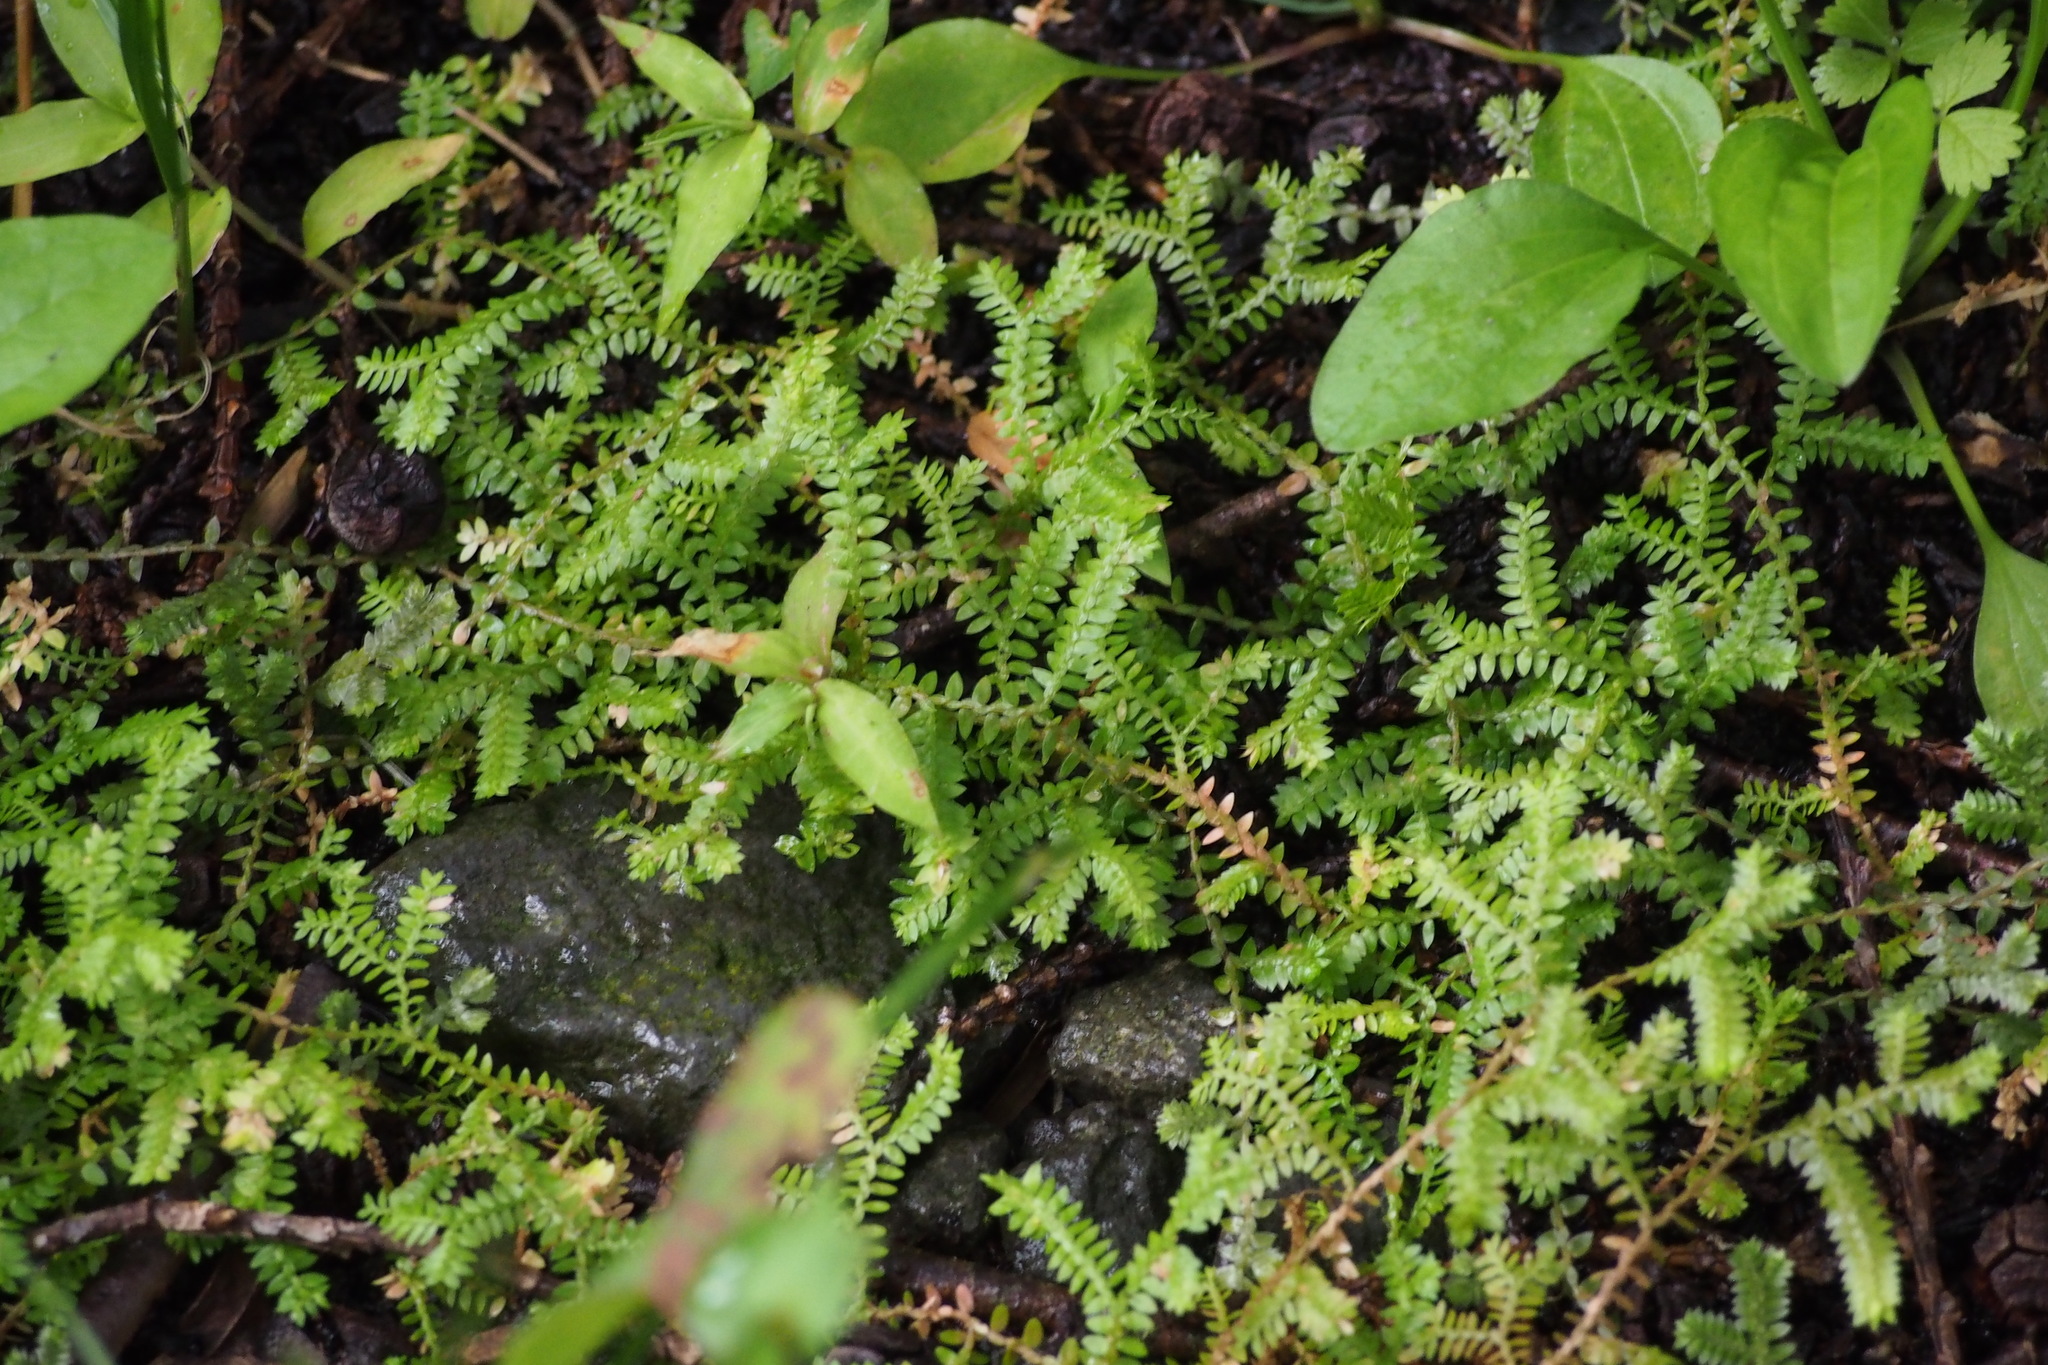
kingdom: Plantae
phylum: Tracheophyta
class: Lycopodiopsida
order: Selaginellales
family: Selaginellaceae
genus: Selaginella
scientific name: Selaginella remotifolia
